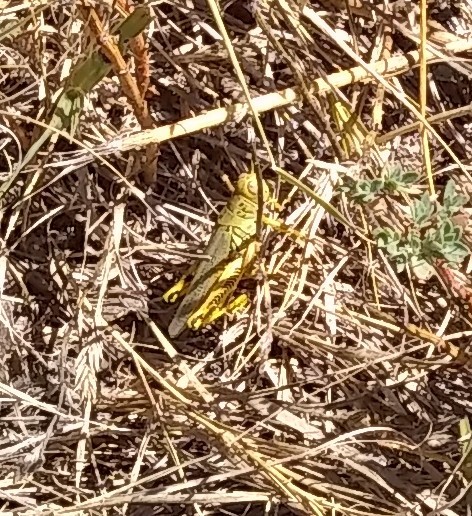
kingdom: Animalia
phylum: Arthropoda
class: Insecta
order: Orthoptera
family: Acrididae
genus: Melanoplus
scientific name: Melanoplus differentialis
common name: Differential grasshopper
